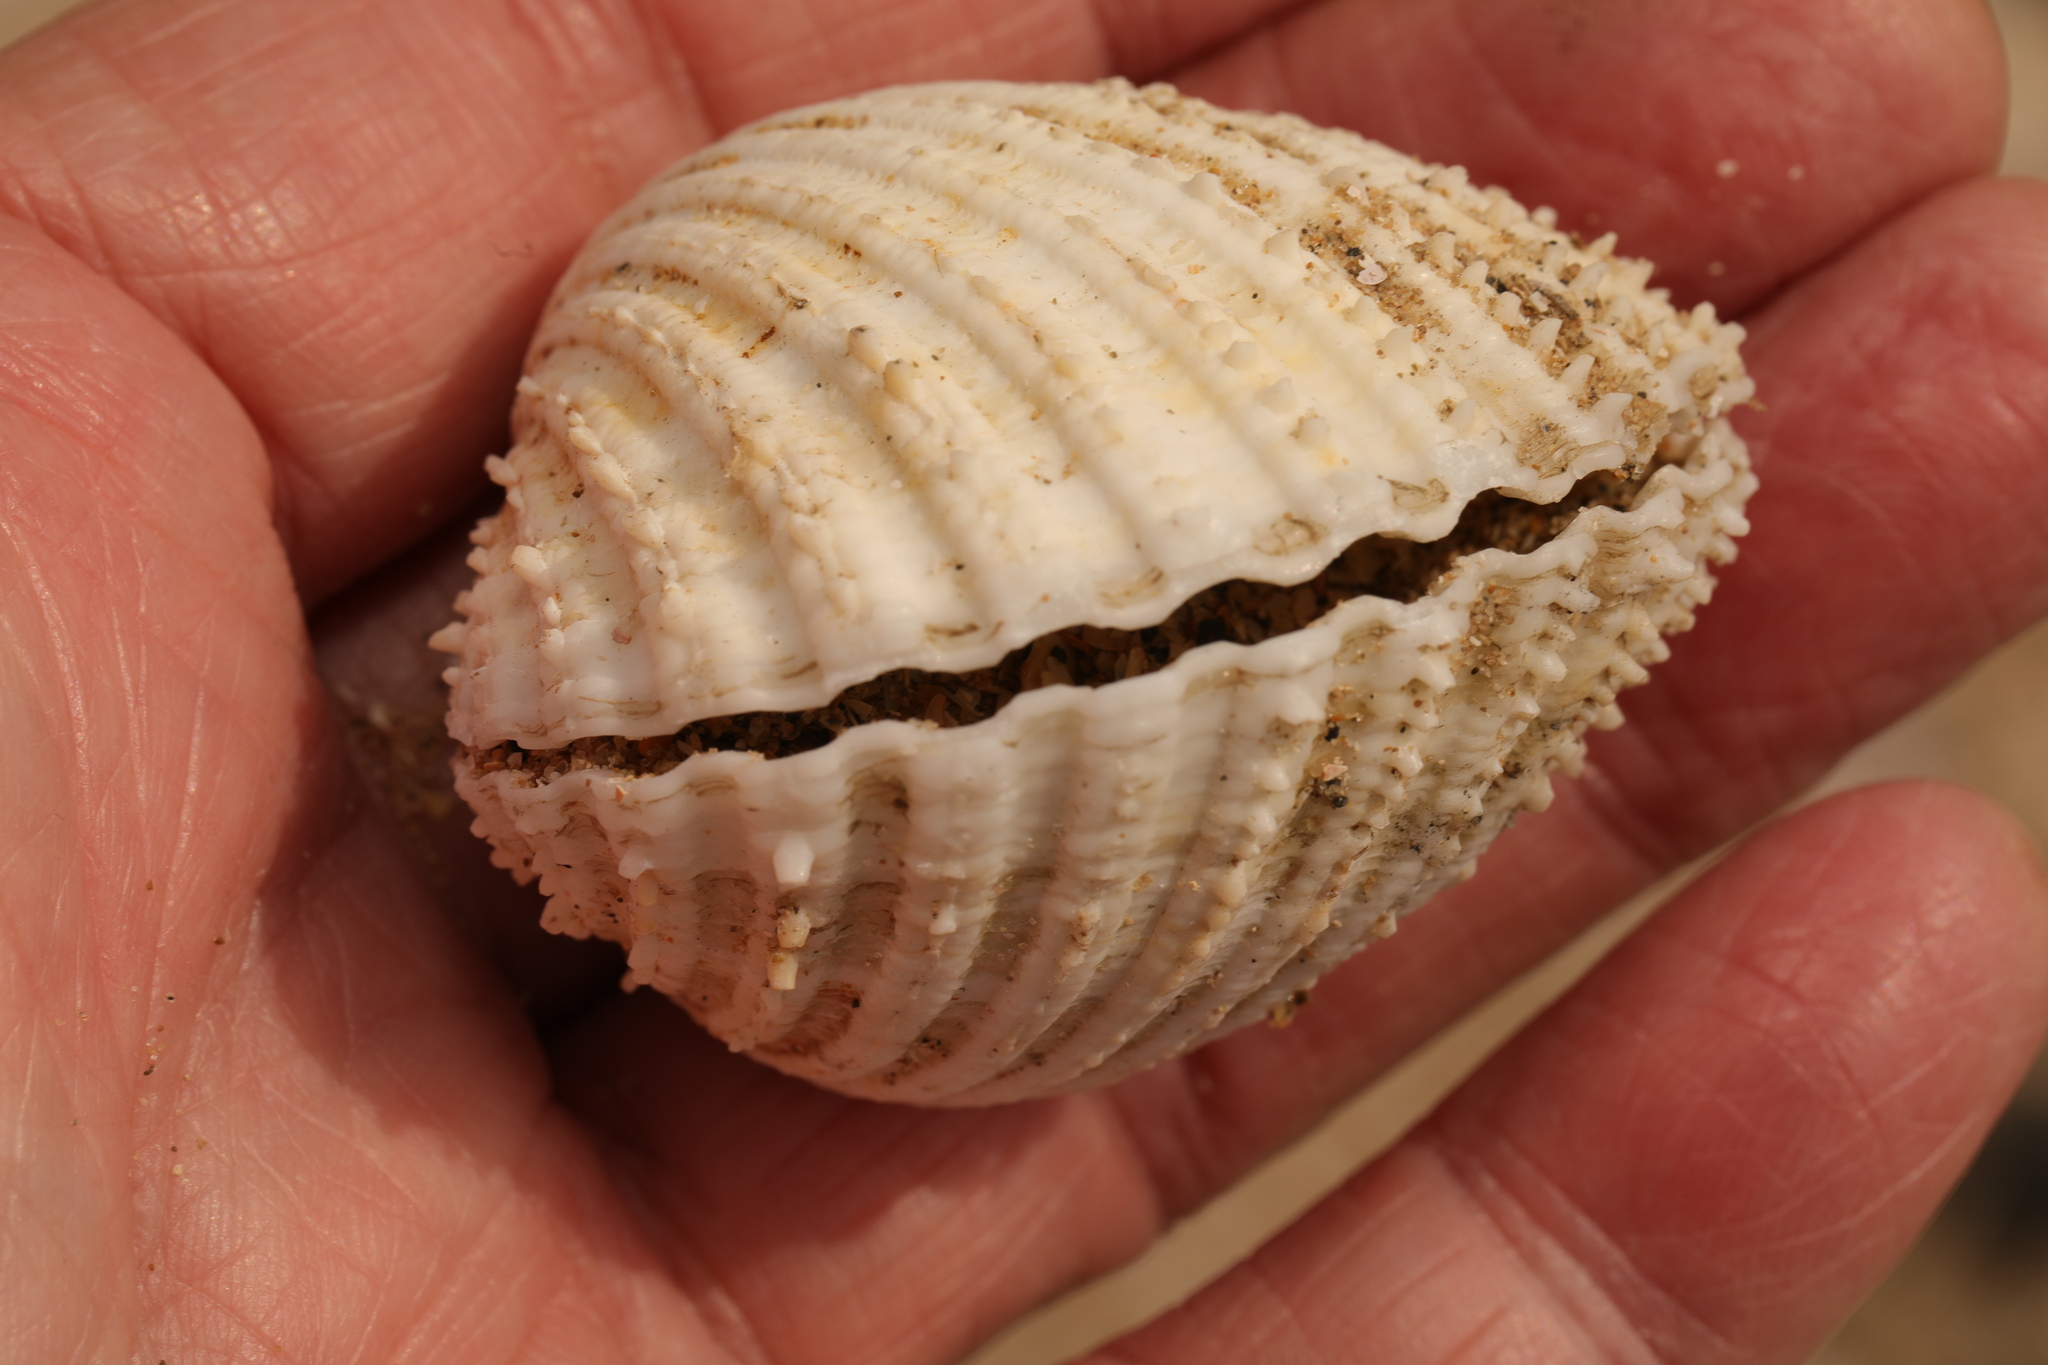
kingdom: Animalia
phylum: Mollusca
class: Bivalvia
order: Cardiida
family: Cardiidae
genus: Acanthocardia
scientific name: Acanthocardia echinata
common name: Prickly cockle
